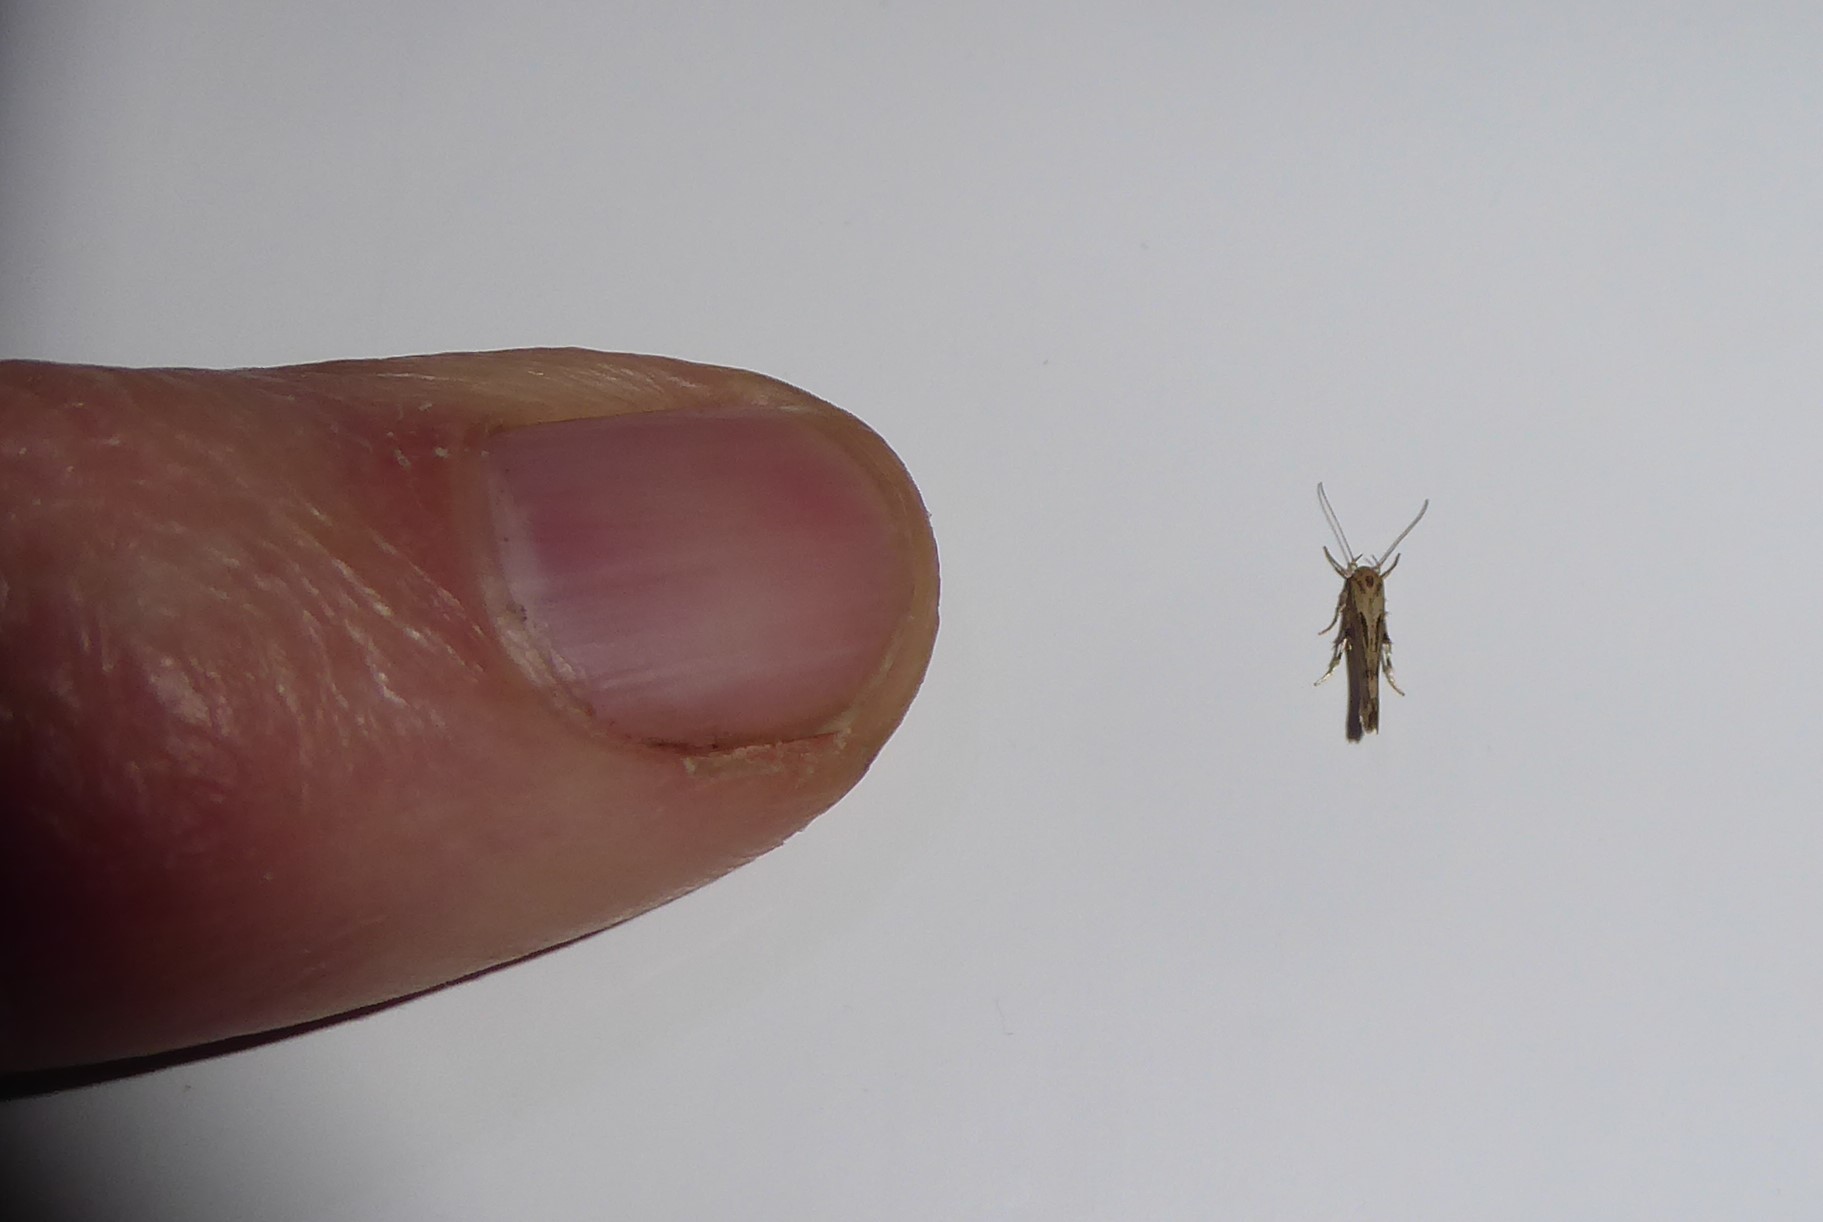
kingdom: Animalia
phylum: Arthropoda
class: Insecta
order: Lepidoptera
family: Stathmopodidae
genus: Stathmopoda
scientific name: Stathmopoda plumbiflua
